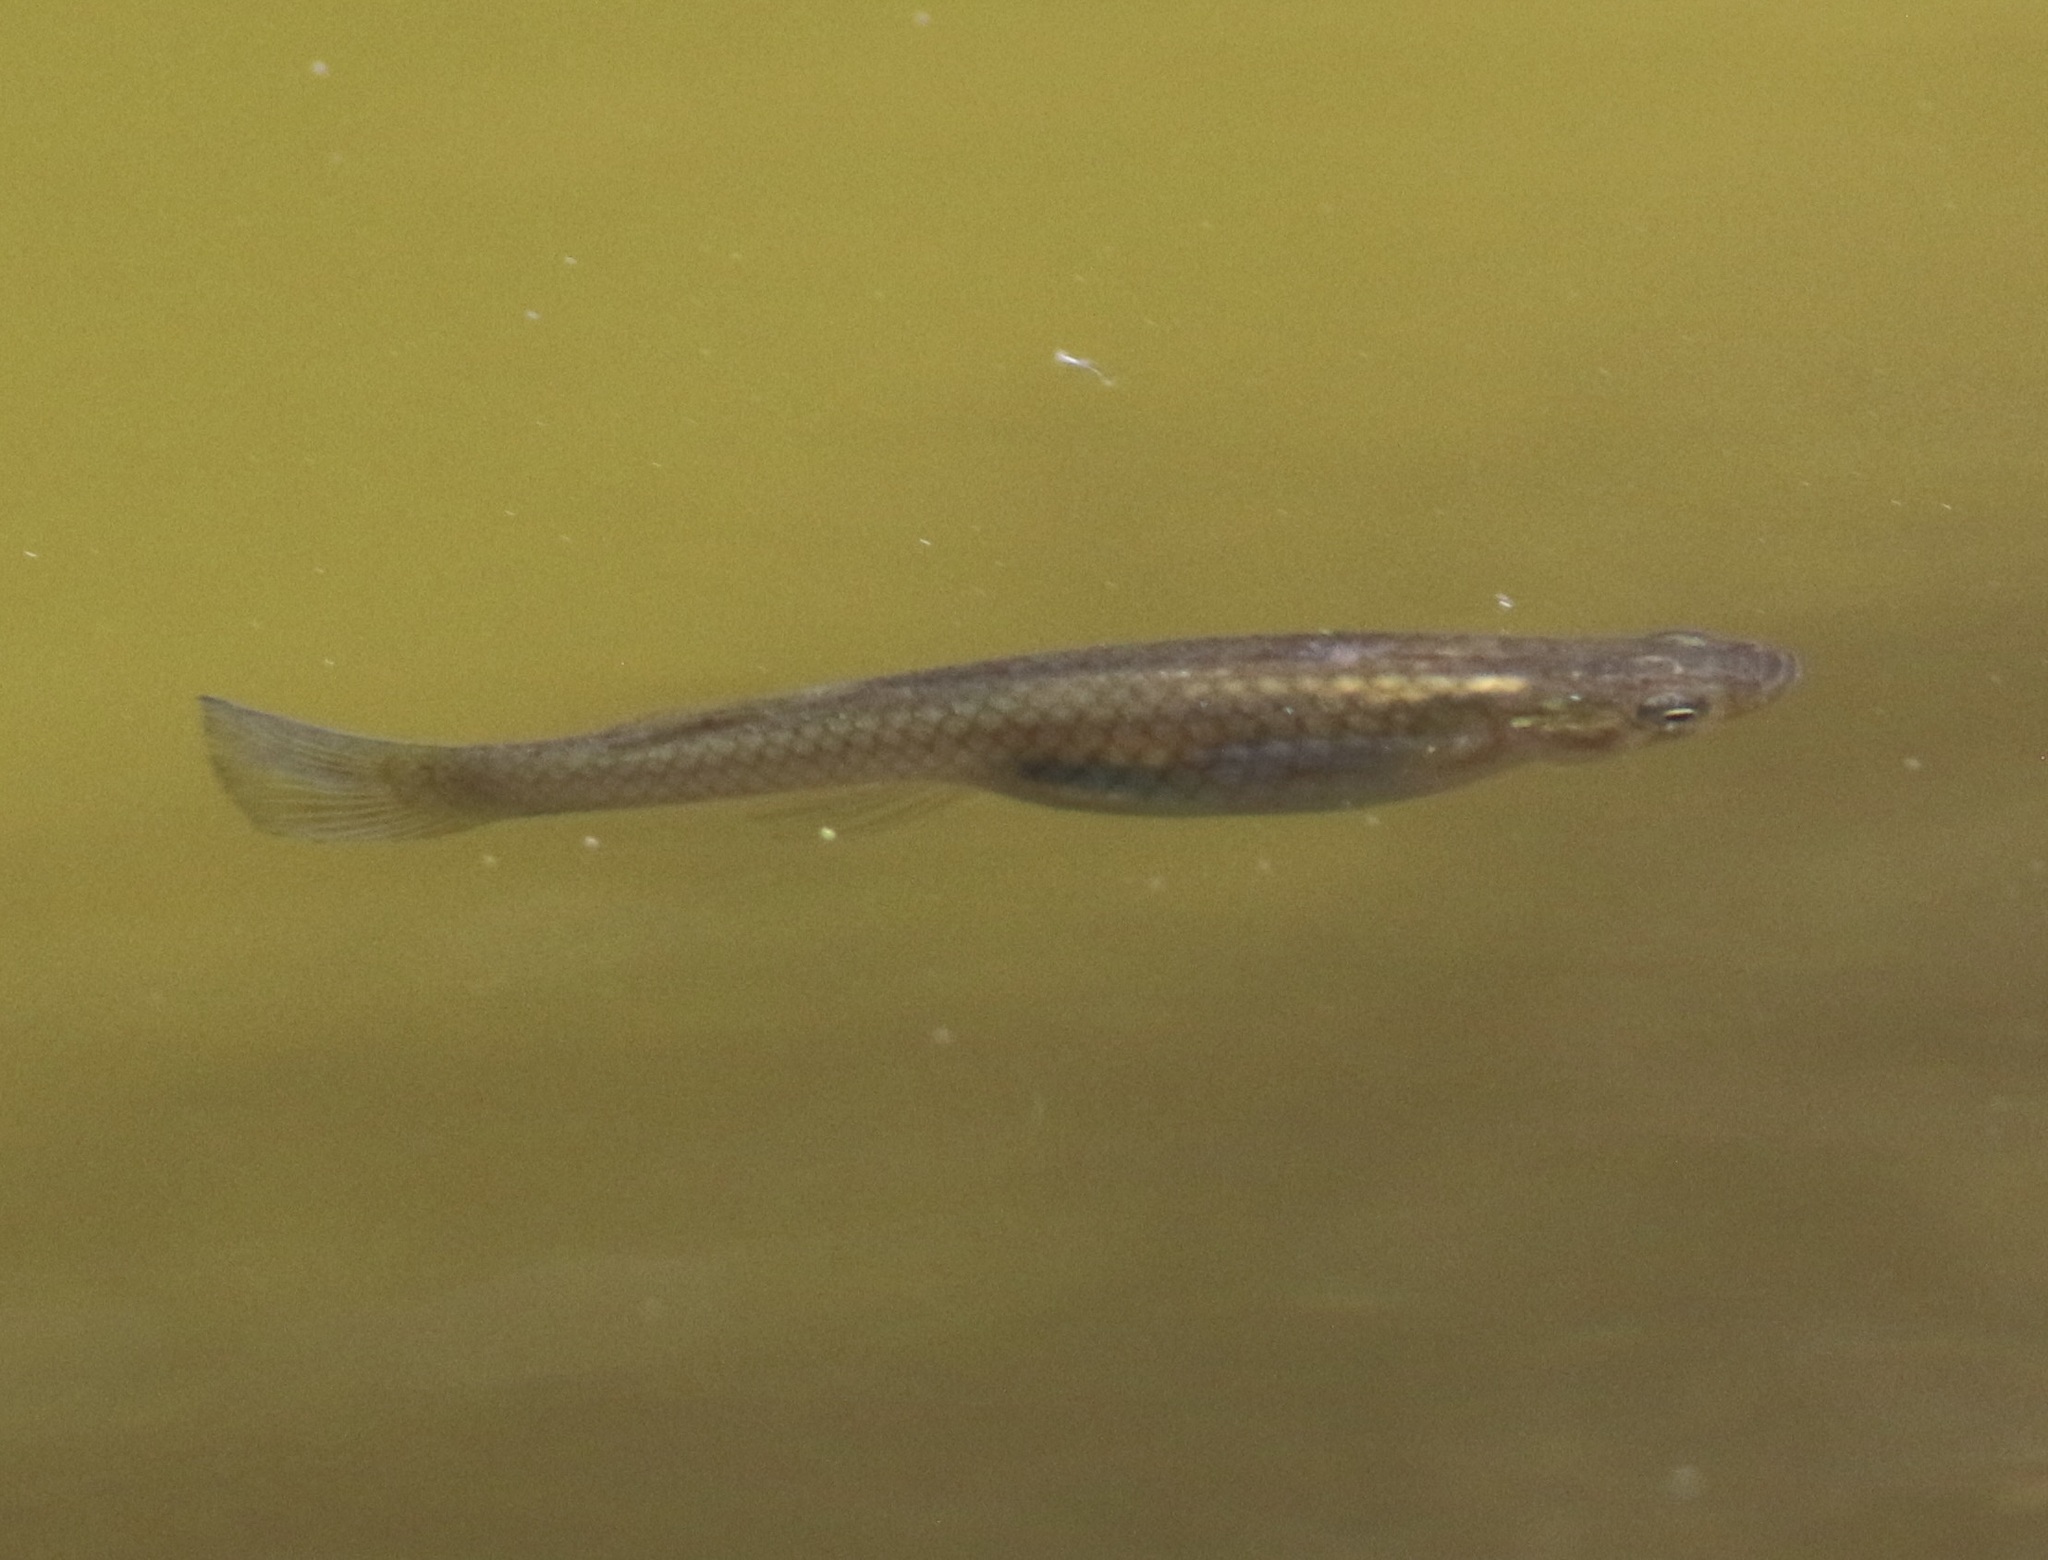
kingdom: Animalia
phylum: Chordata
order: Cyprinodontiformes
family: Poeciliidae
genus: Gambusia
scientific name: Gambusia affinis
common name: Mosquitofish
